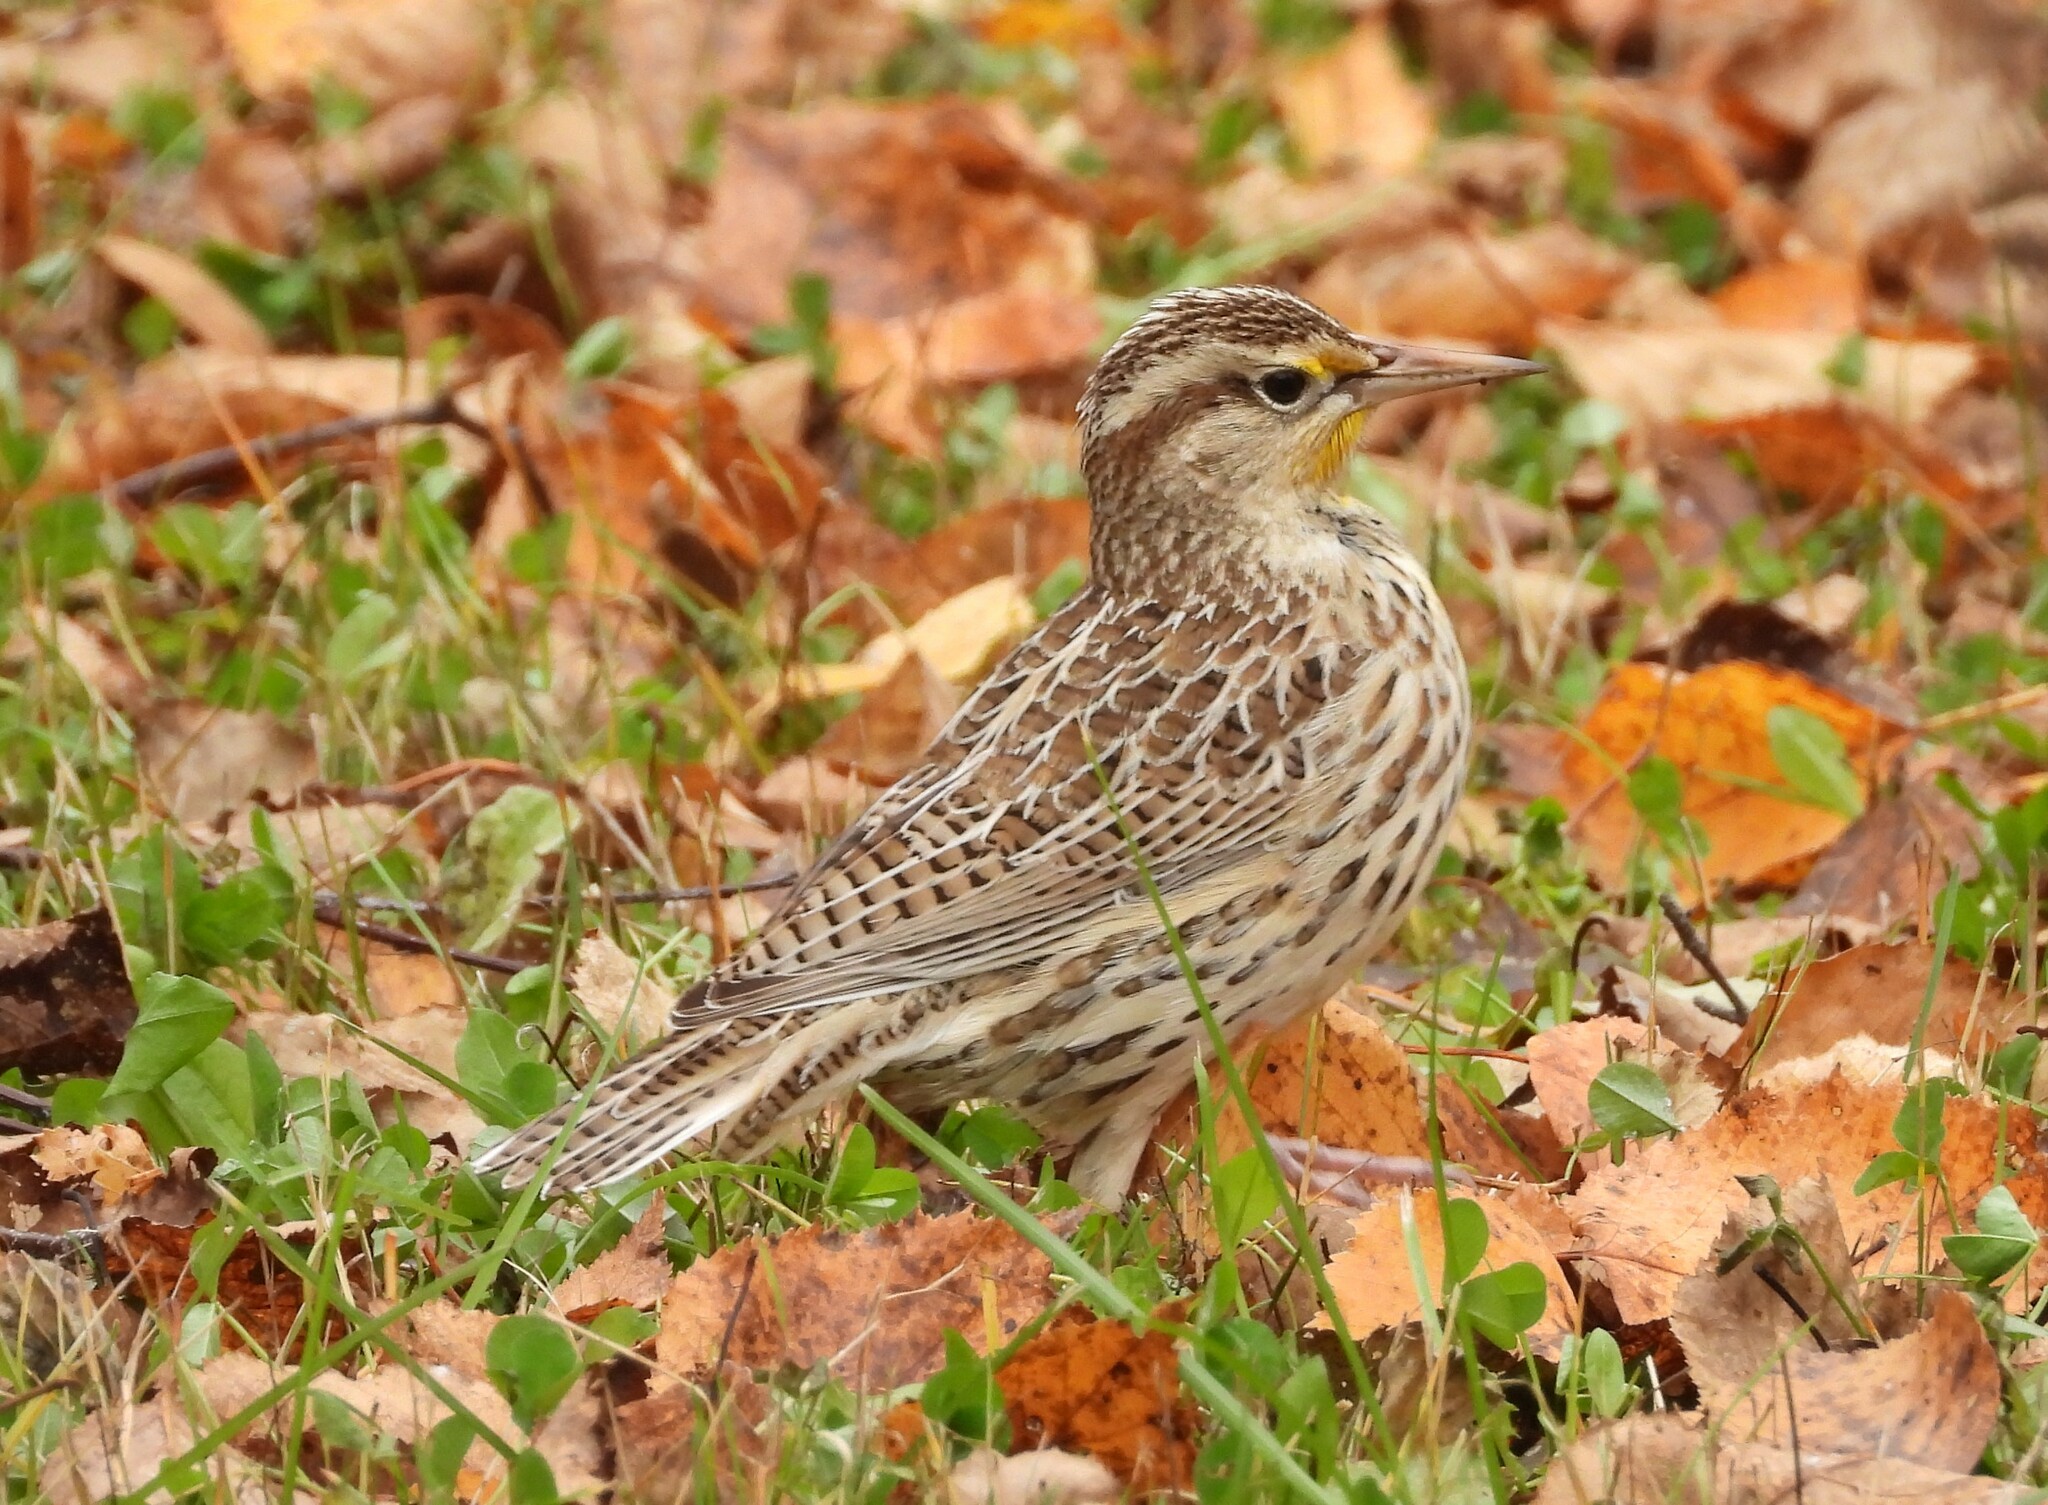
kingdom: Animalia
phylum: Chordata
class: Aves
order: Passeriformes
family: Icteridae
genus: Sturnella
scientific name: Sturnella neglecta
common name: Western meadowlark
